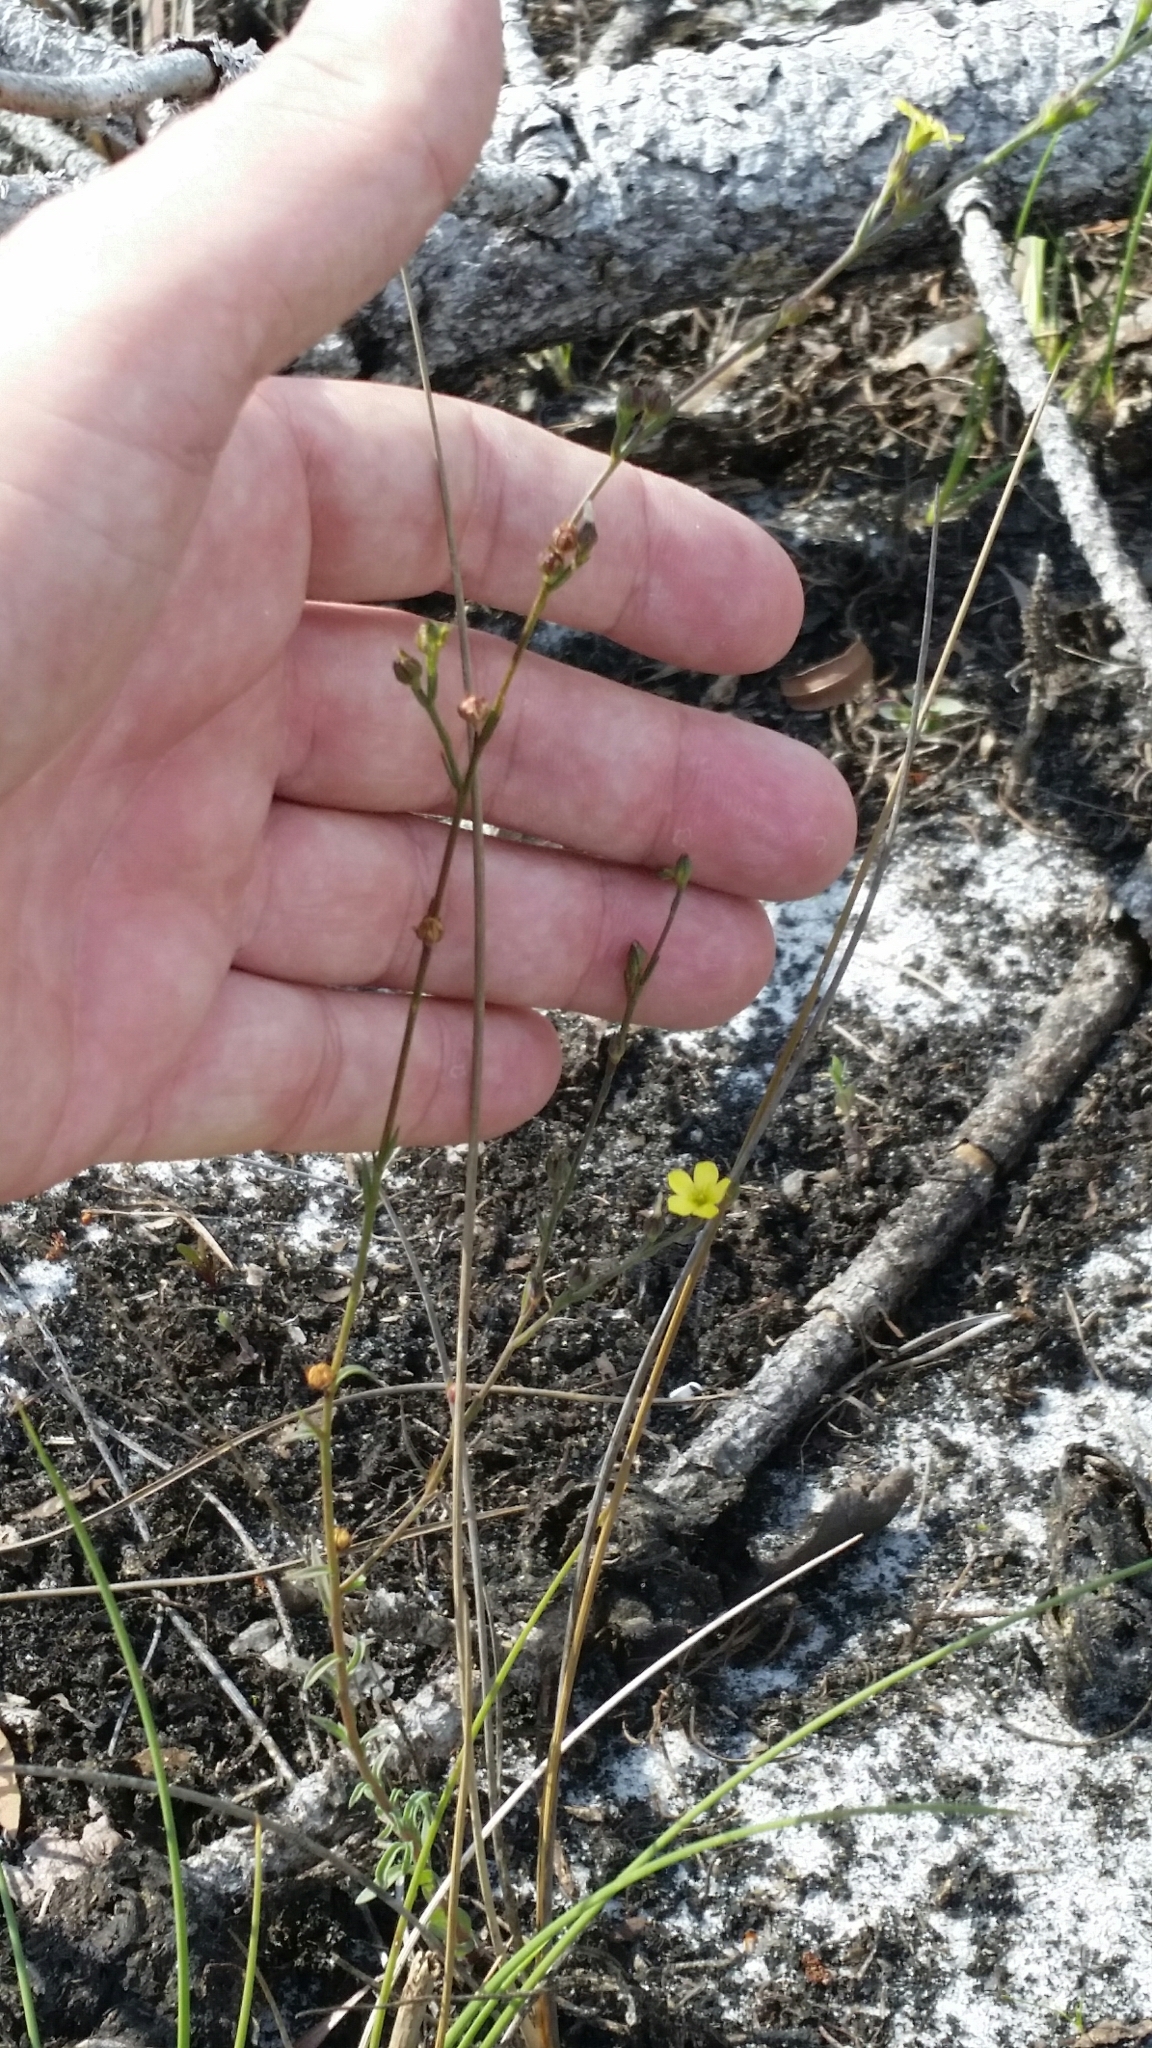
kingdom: Plantae
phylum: Tracheophyta
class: Magnoliopsida
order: Malpighiales
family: Linaceae
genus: Linum
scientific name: Linum medium
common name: Stiff yellow flax
